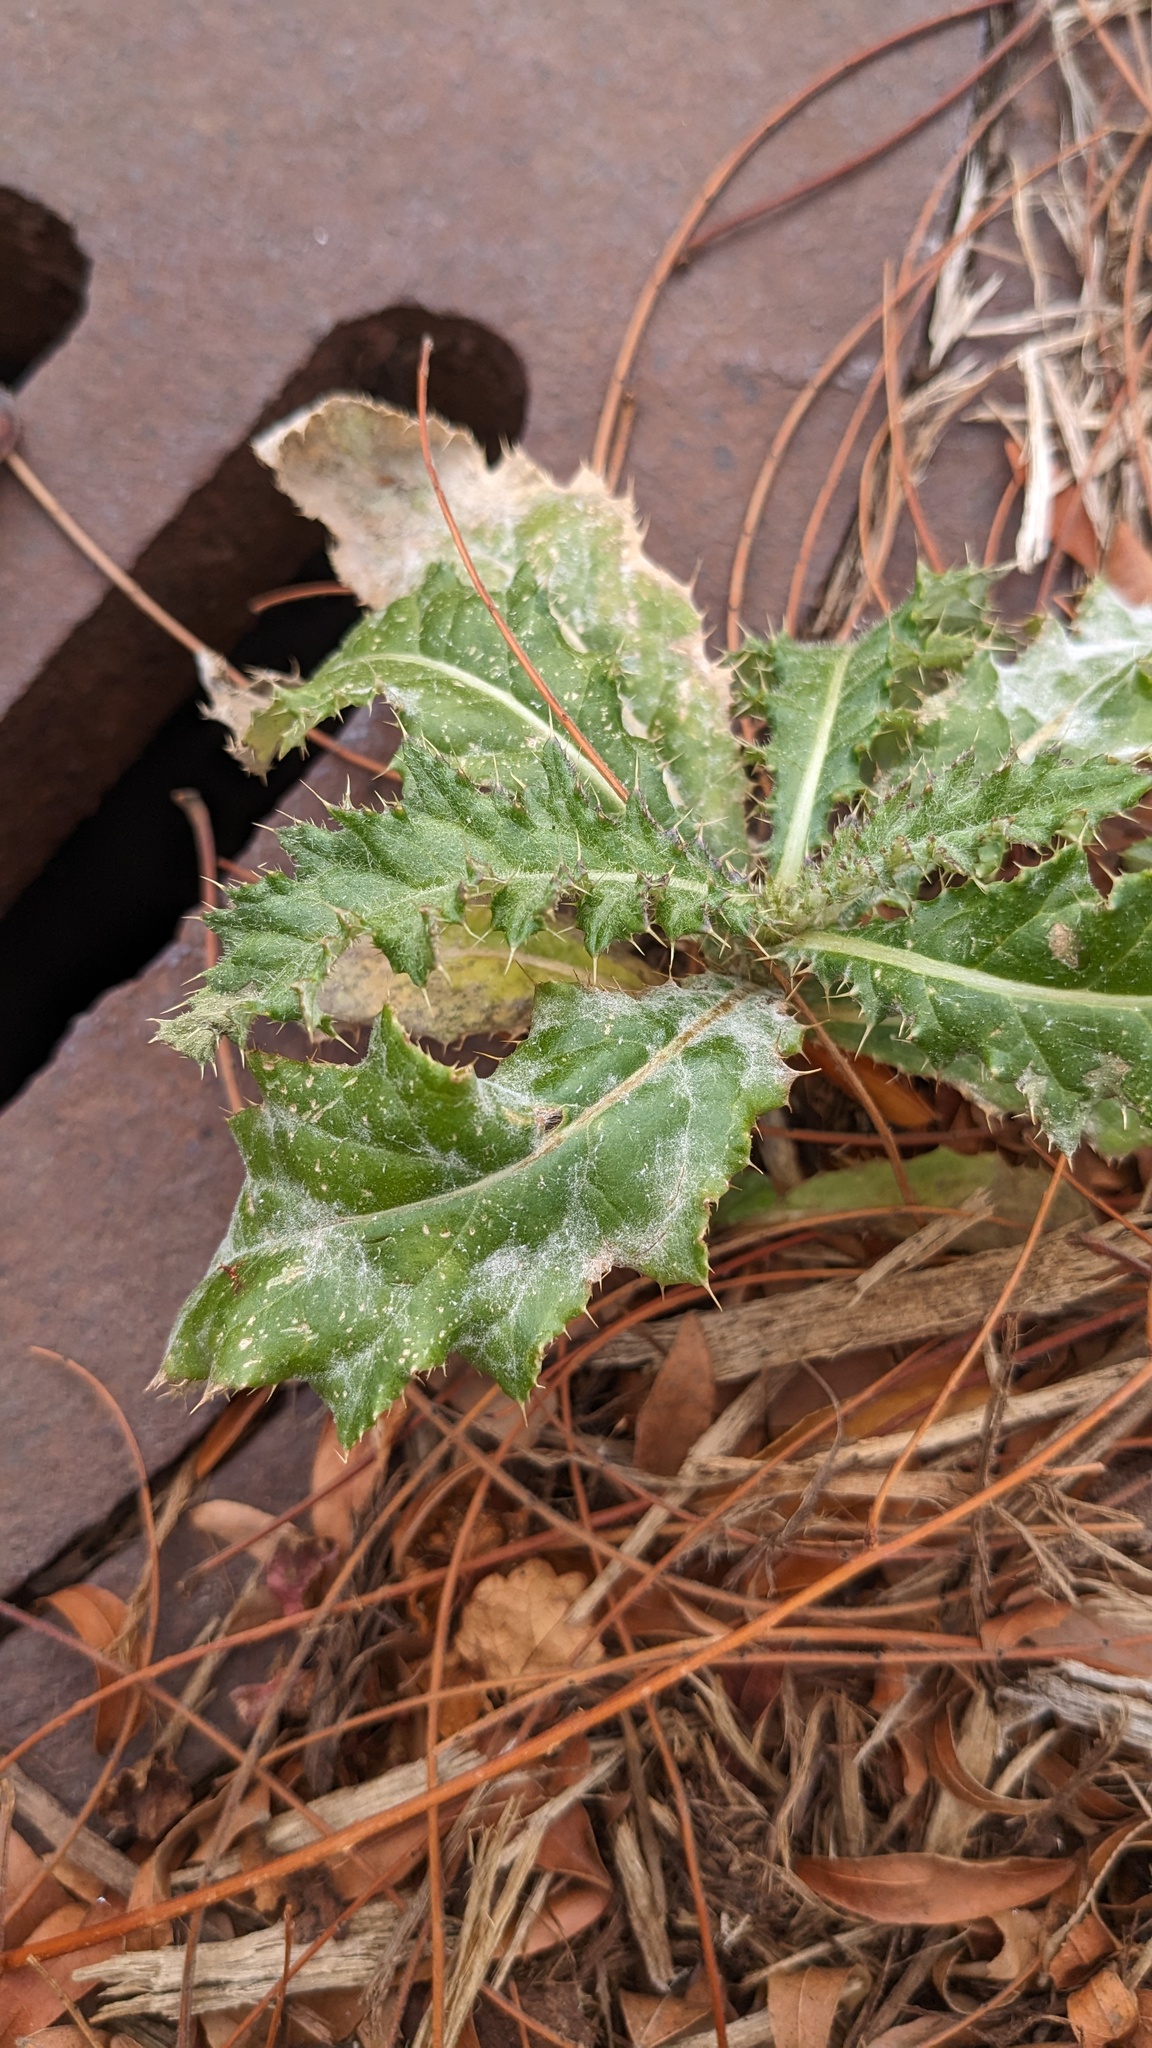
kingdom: Plantae
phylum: Tracheophyta
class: Magnoliopsida
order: Asterales
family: Asteraceae
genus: Cirsium
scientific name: Cirsium arvense
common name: Creeping thistle
